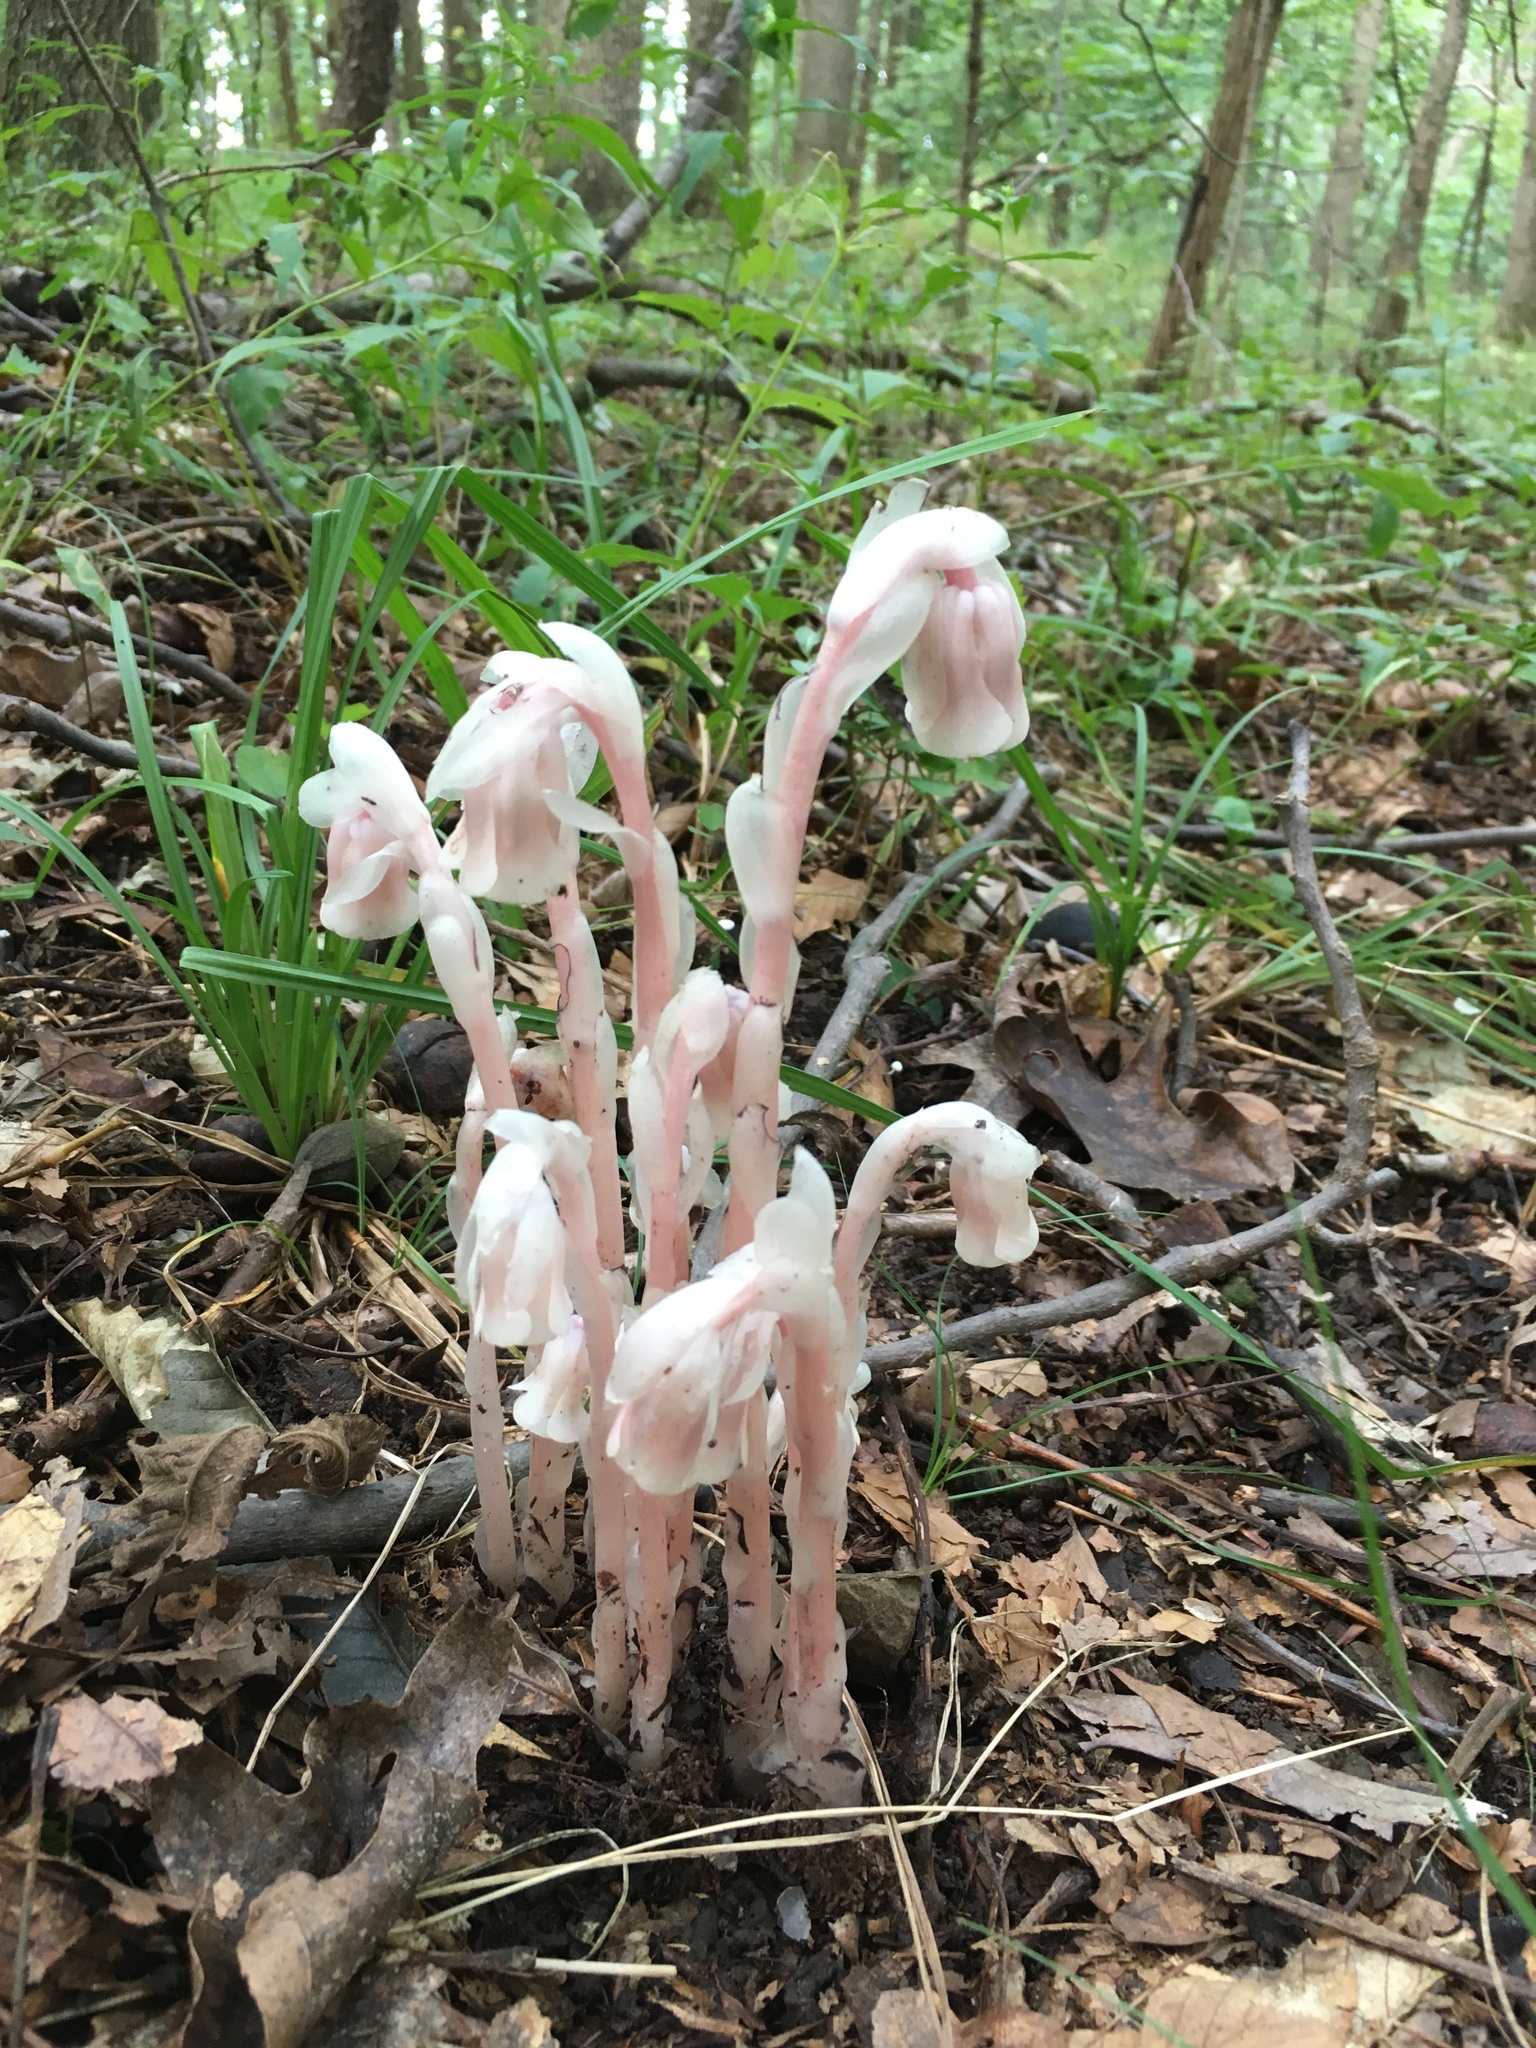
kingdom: Plantae
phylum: Tracheophyta
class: Magnoliopsida
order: Ericales
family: Ericaceae
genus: Monotropa
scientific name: Monotropa uniflora
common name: Convulsion root
